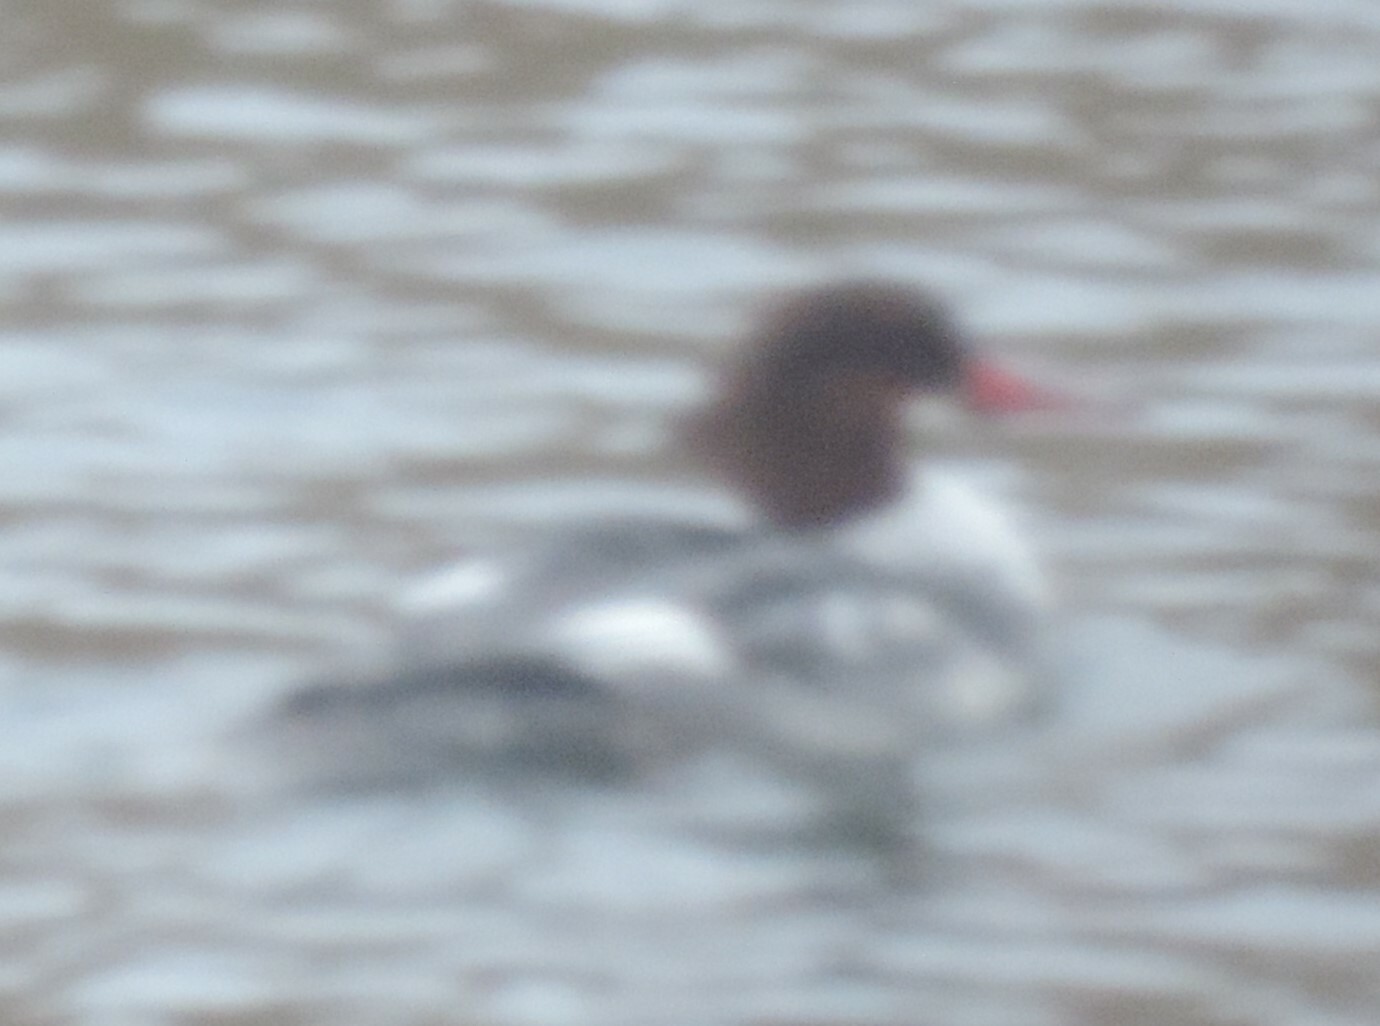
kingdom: Animalia
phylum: Chordata
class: Aves
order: Anseriformes
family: Anatidae
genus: Mergus
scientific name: Mergus merganser
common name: Common merganser
